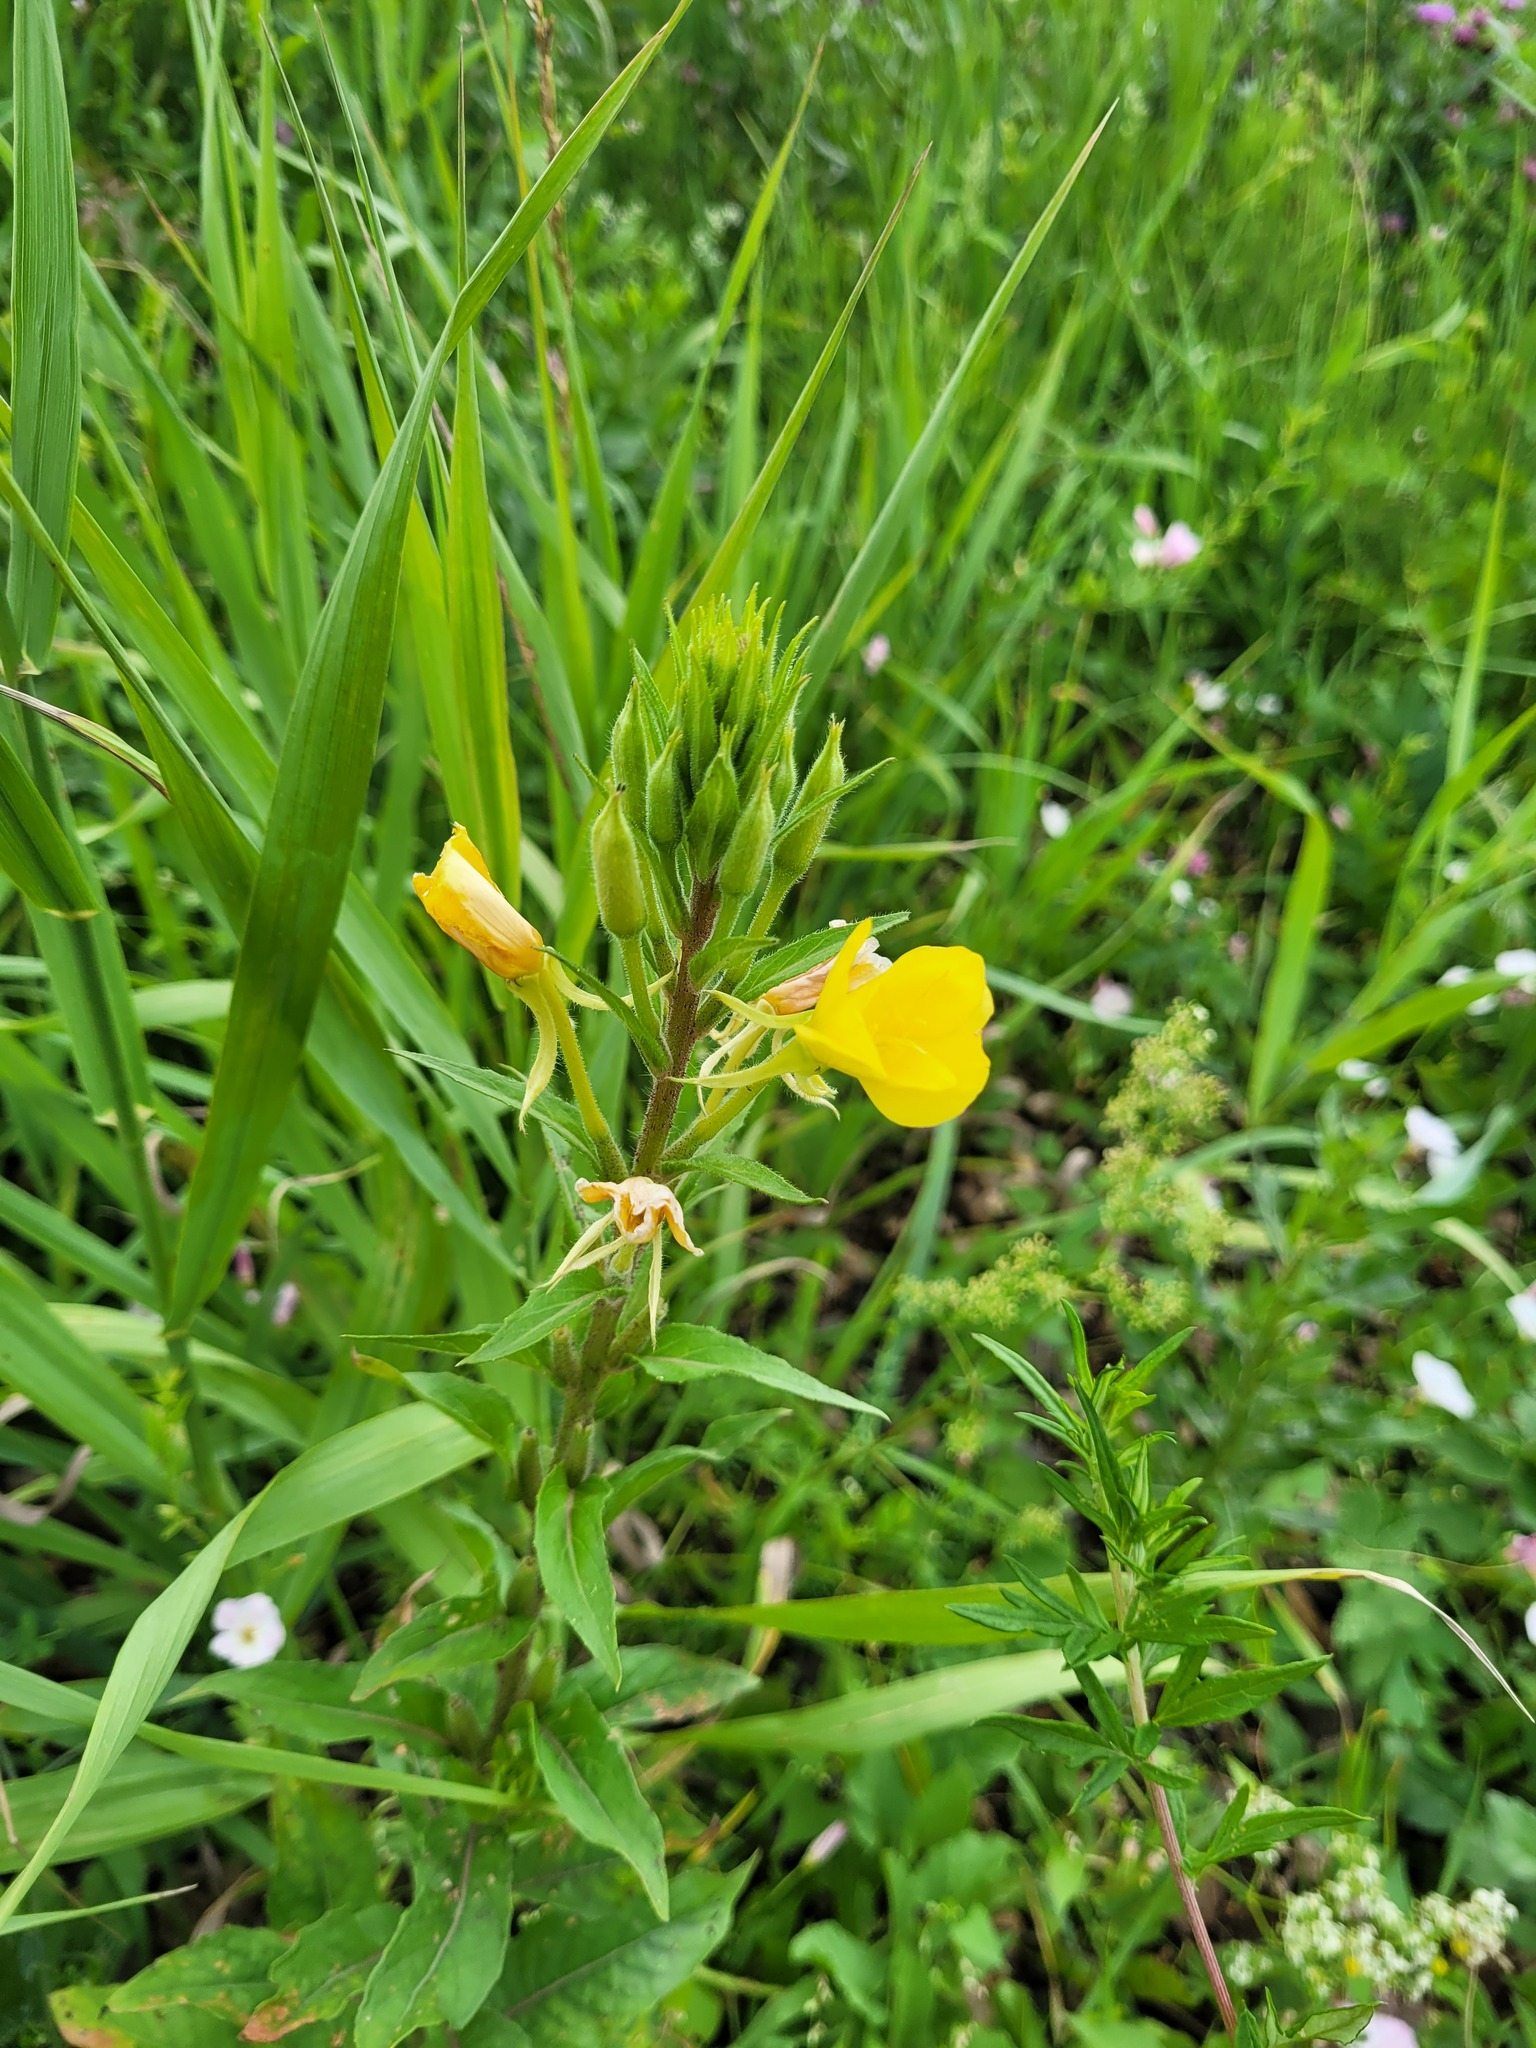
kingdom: Plantae
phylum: Tracheophyta
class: Magnoliopsida
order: Myrtales
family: Onagraceae
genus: Oenothera
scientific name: Oenothera rubricaulis
